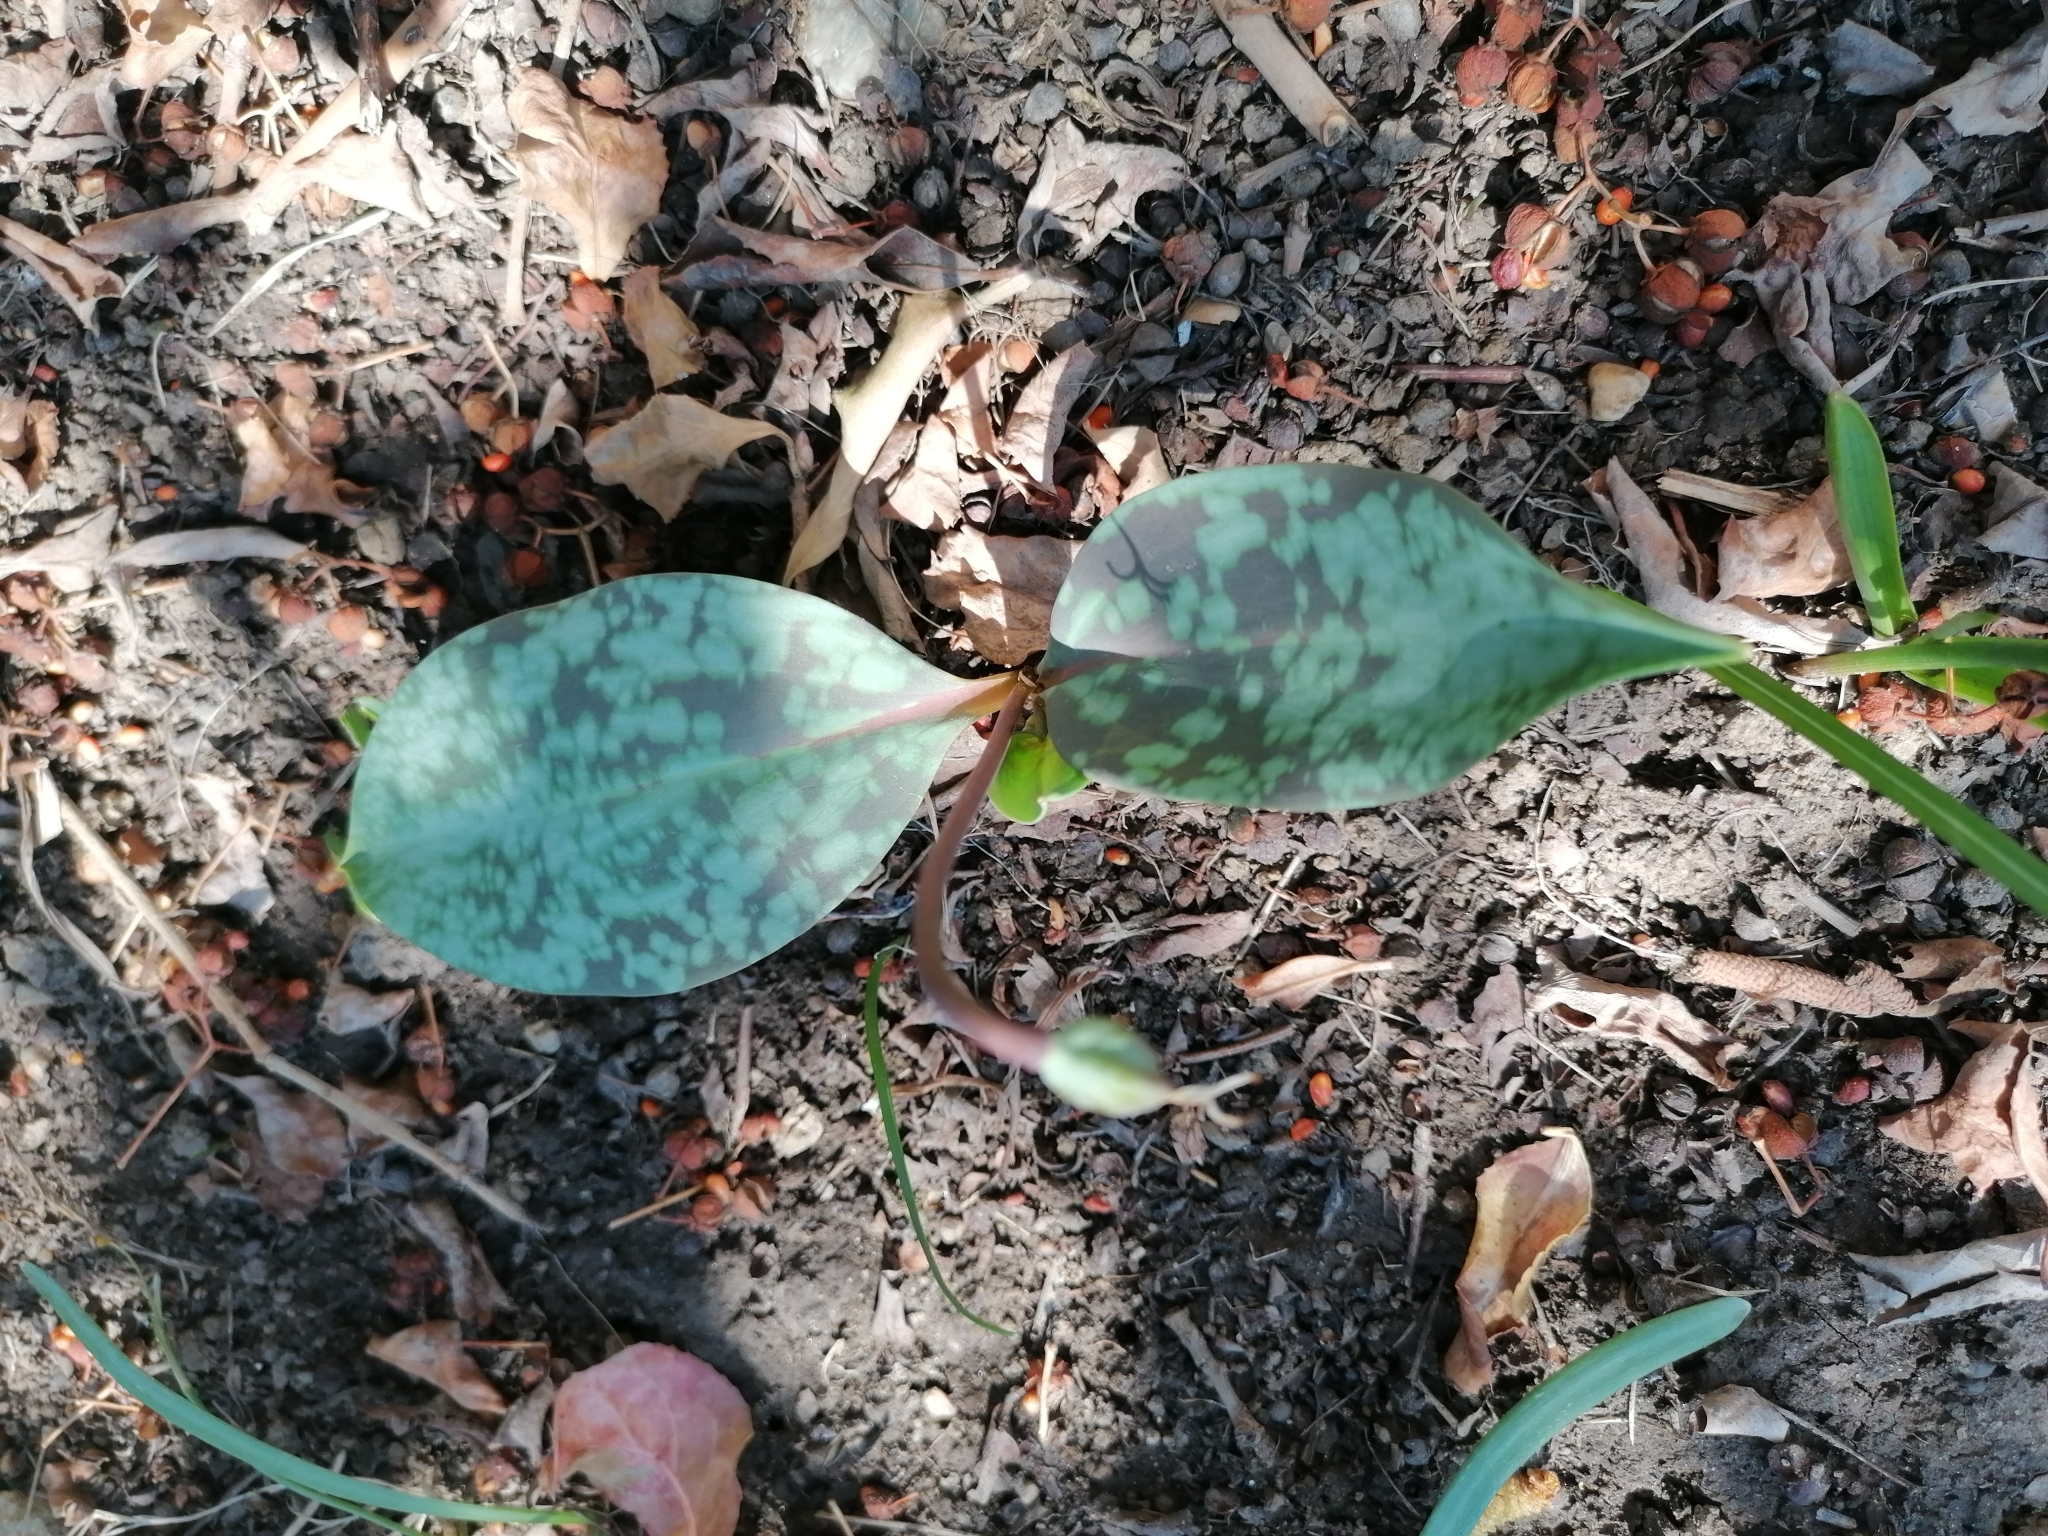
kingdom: Plantae
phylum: Tracheophyta
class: Liliopsida
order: Liliales
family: Liliaceae
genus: Erythronium
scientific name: Erythronium dens-canis
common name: Dog's-tooth-violet
